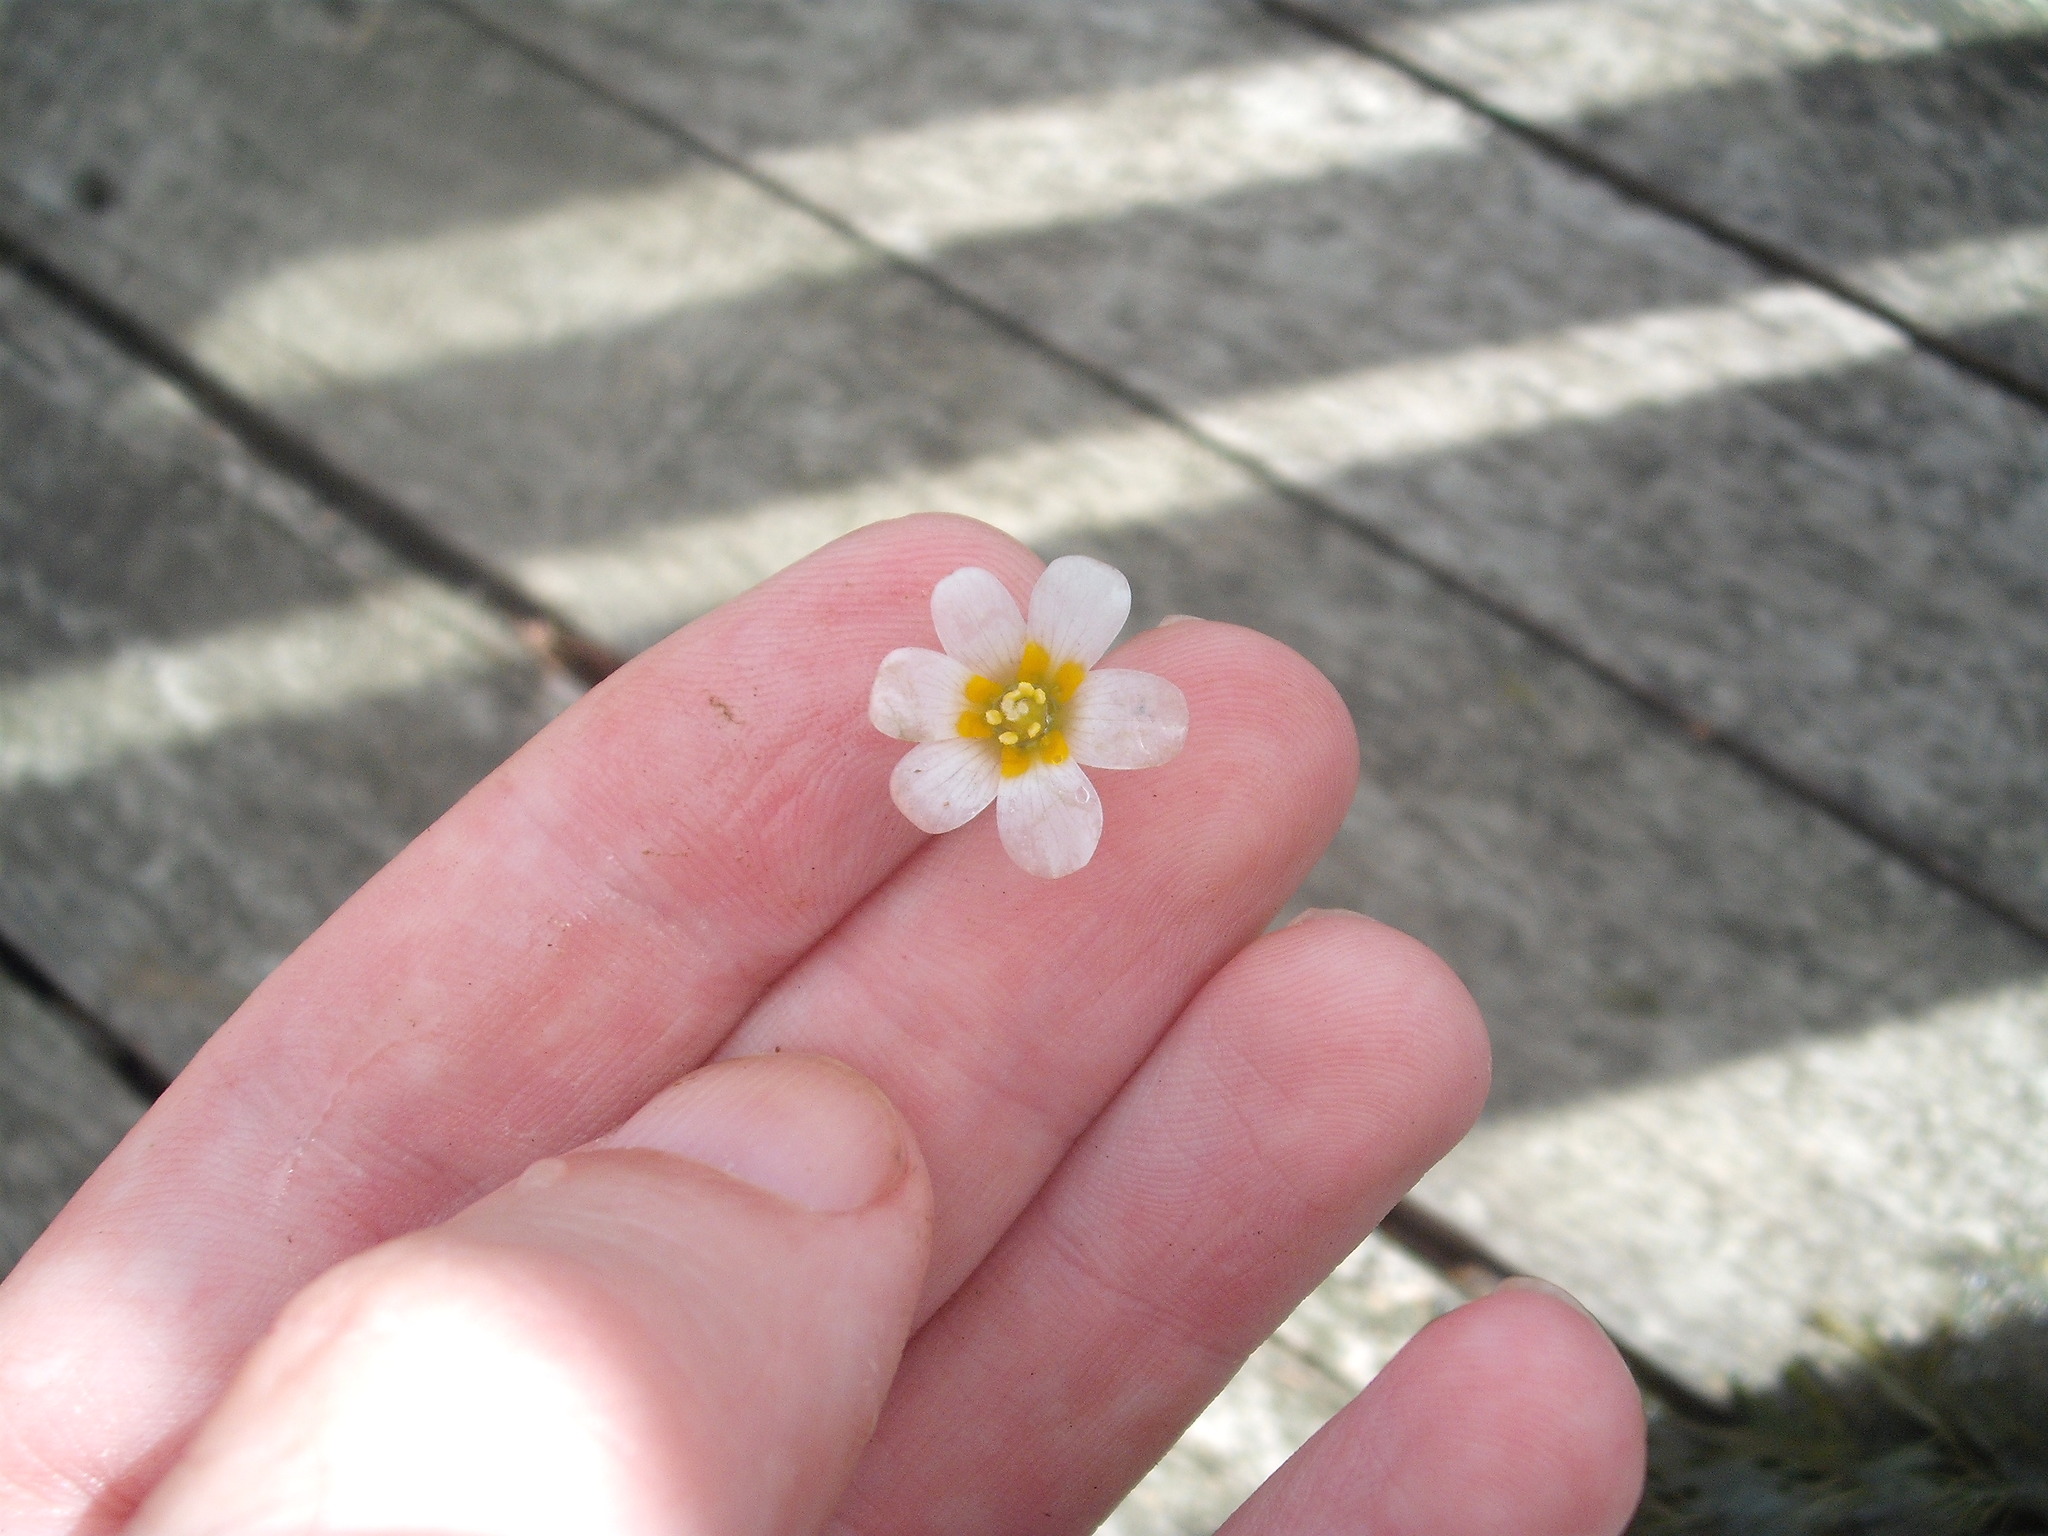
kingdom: Plantae
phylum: Tracheophyta
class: Magnoliopsida
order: Nymphaeales
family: Cabombaceae
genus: Cabomba
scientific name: Cabomba caroliniana
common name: Fanwort
